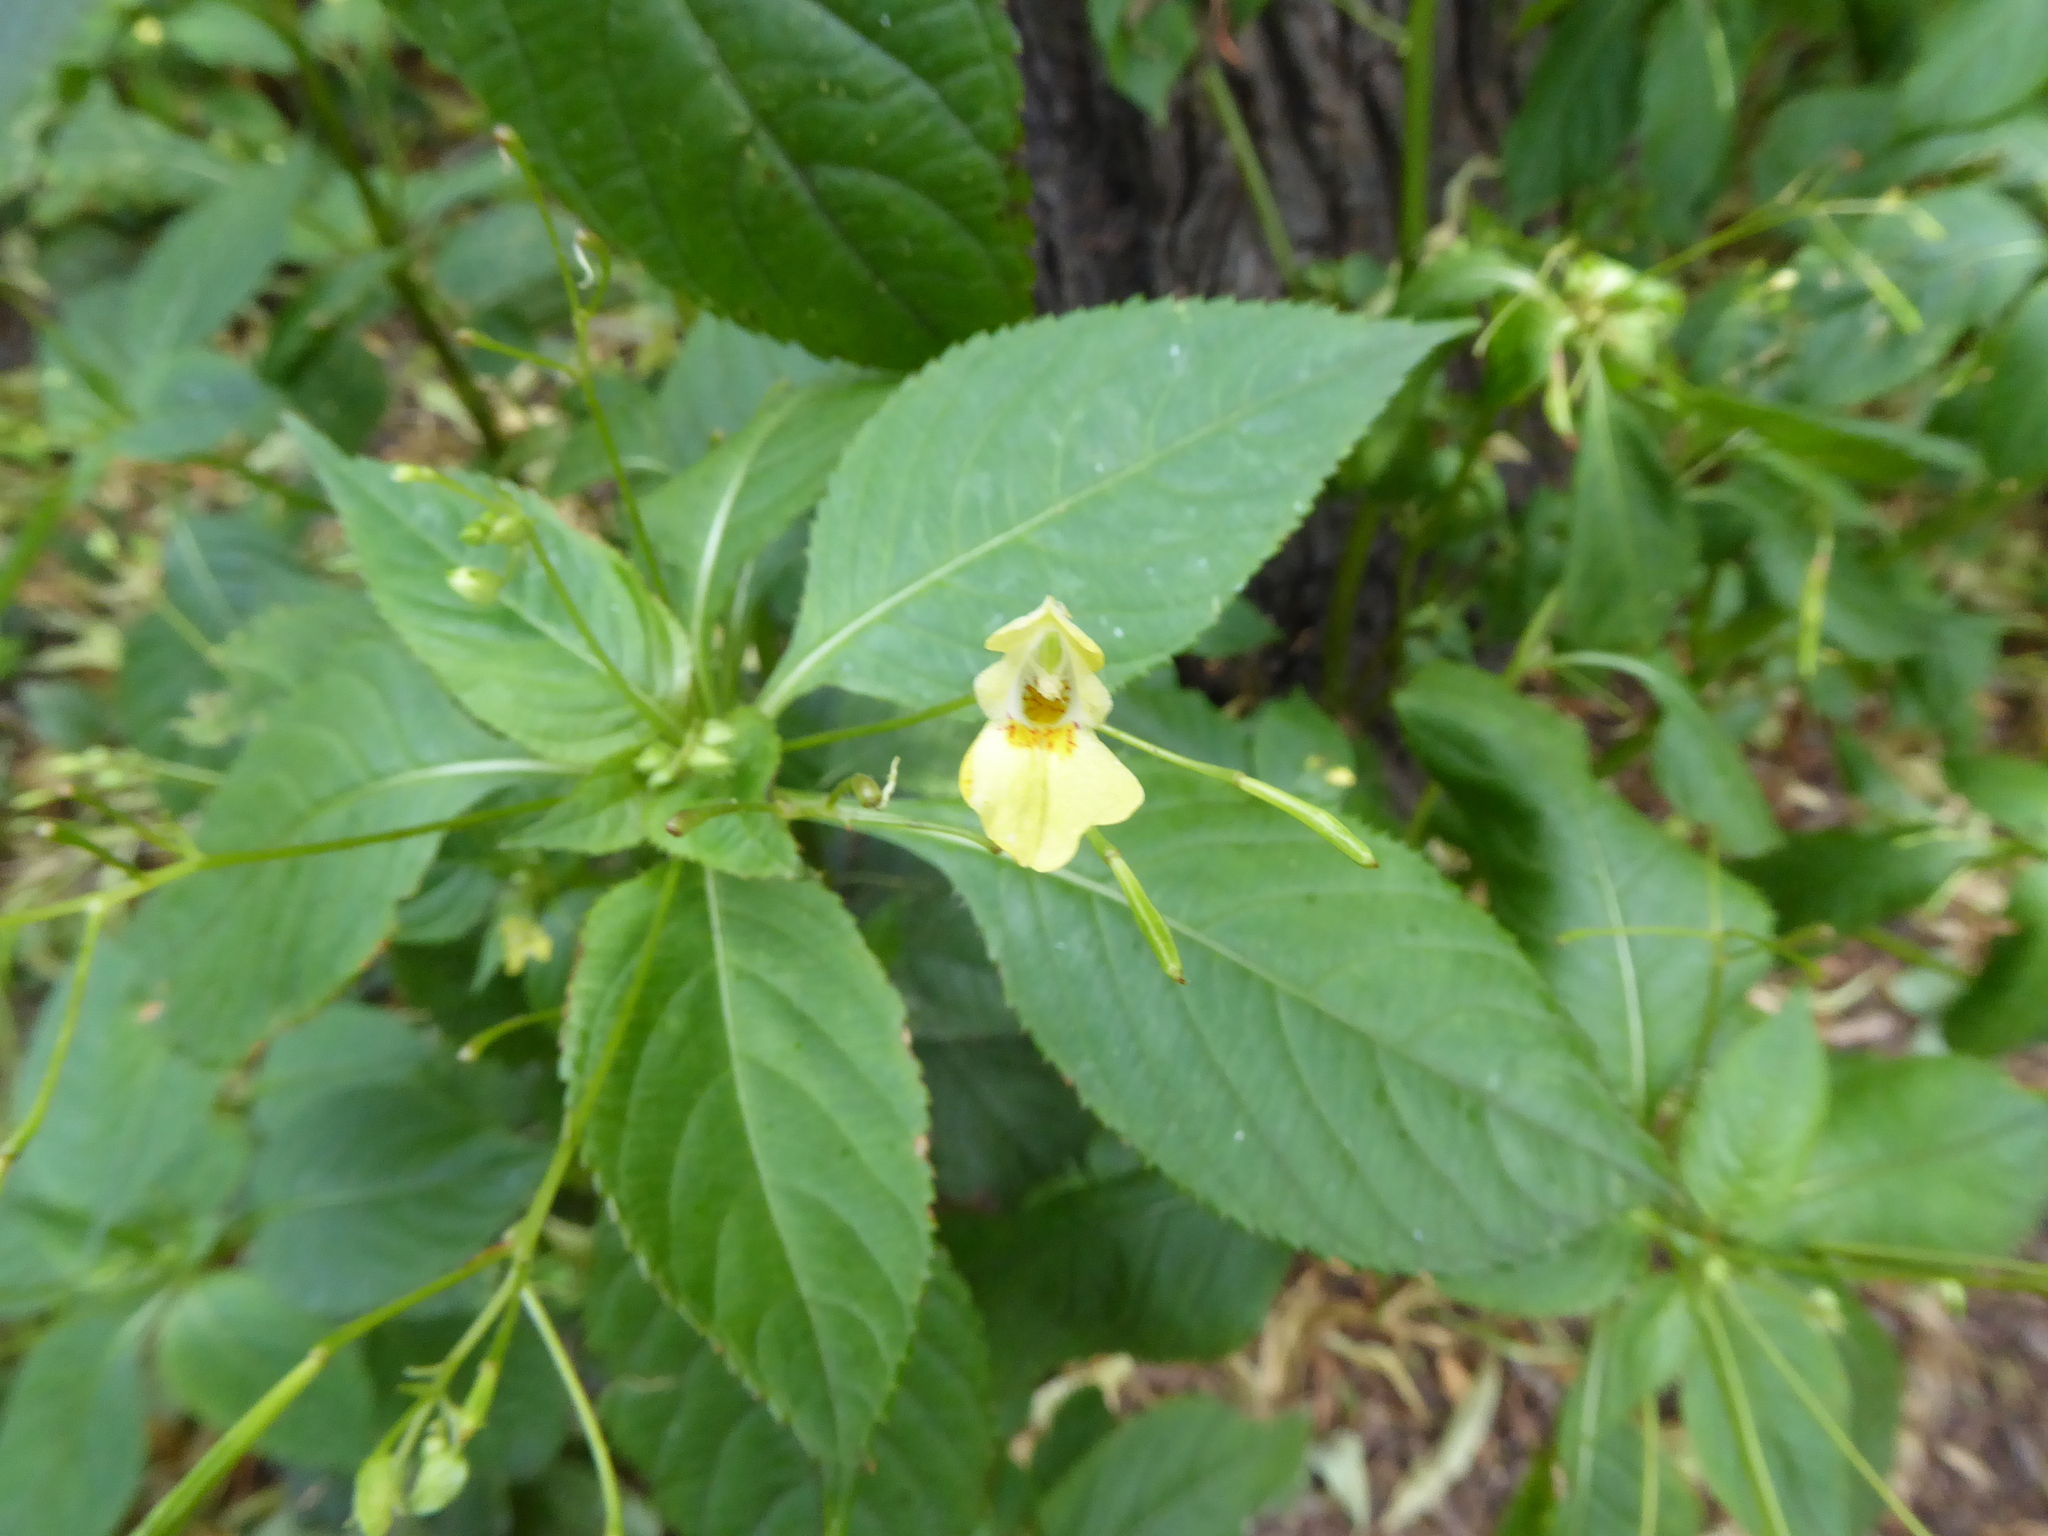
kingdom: Plantae
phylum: Tracheophyta
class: Magnoliopsida
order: Ericales
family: Balsaminaceae
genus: Impatiens
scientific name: Impatiens parviflora
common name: Small balsam
